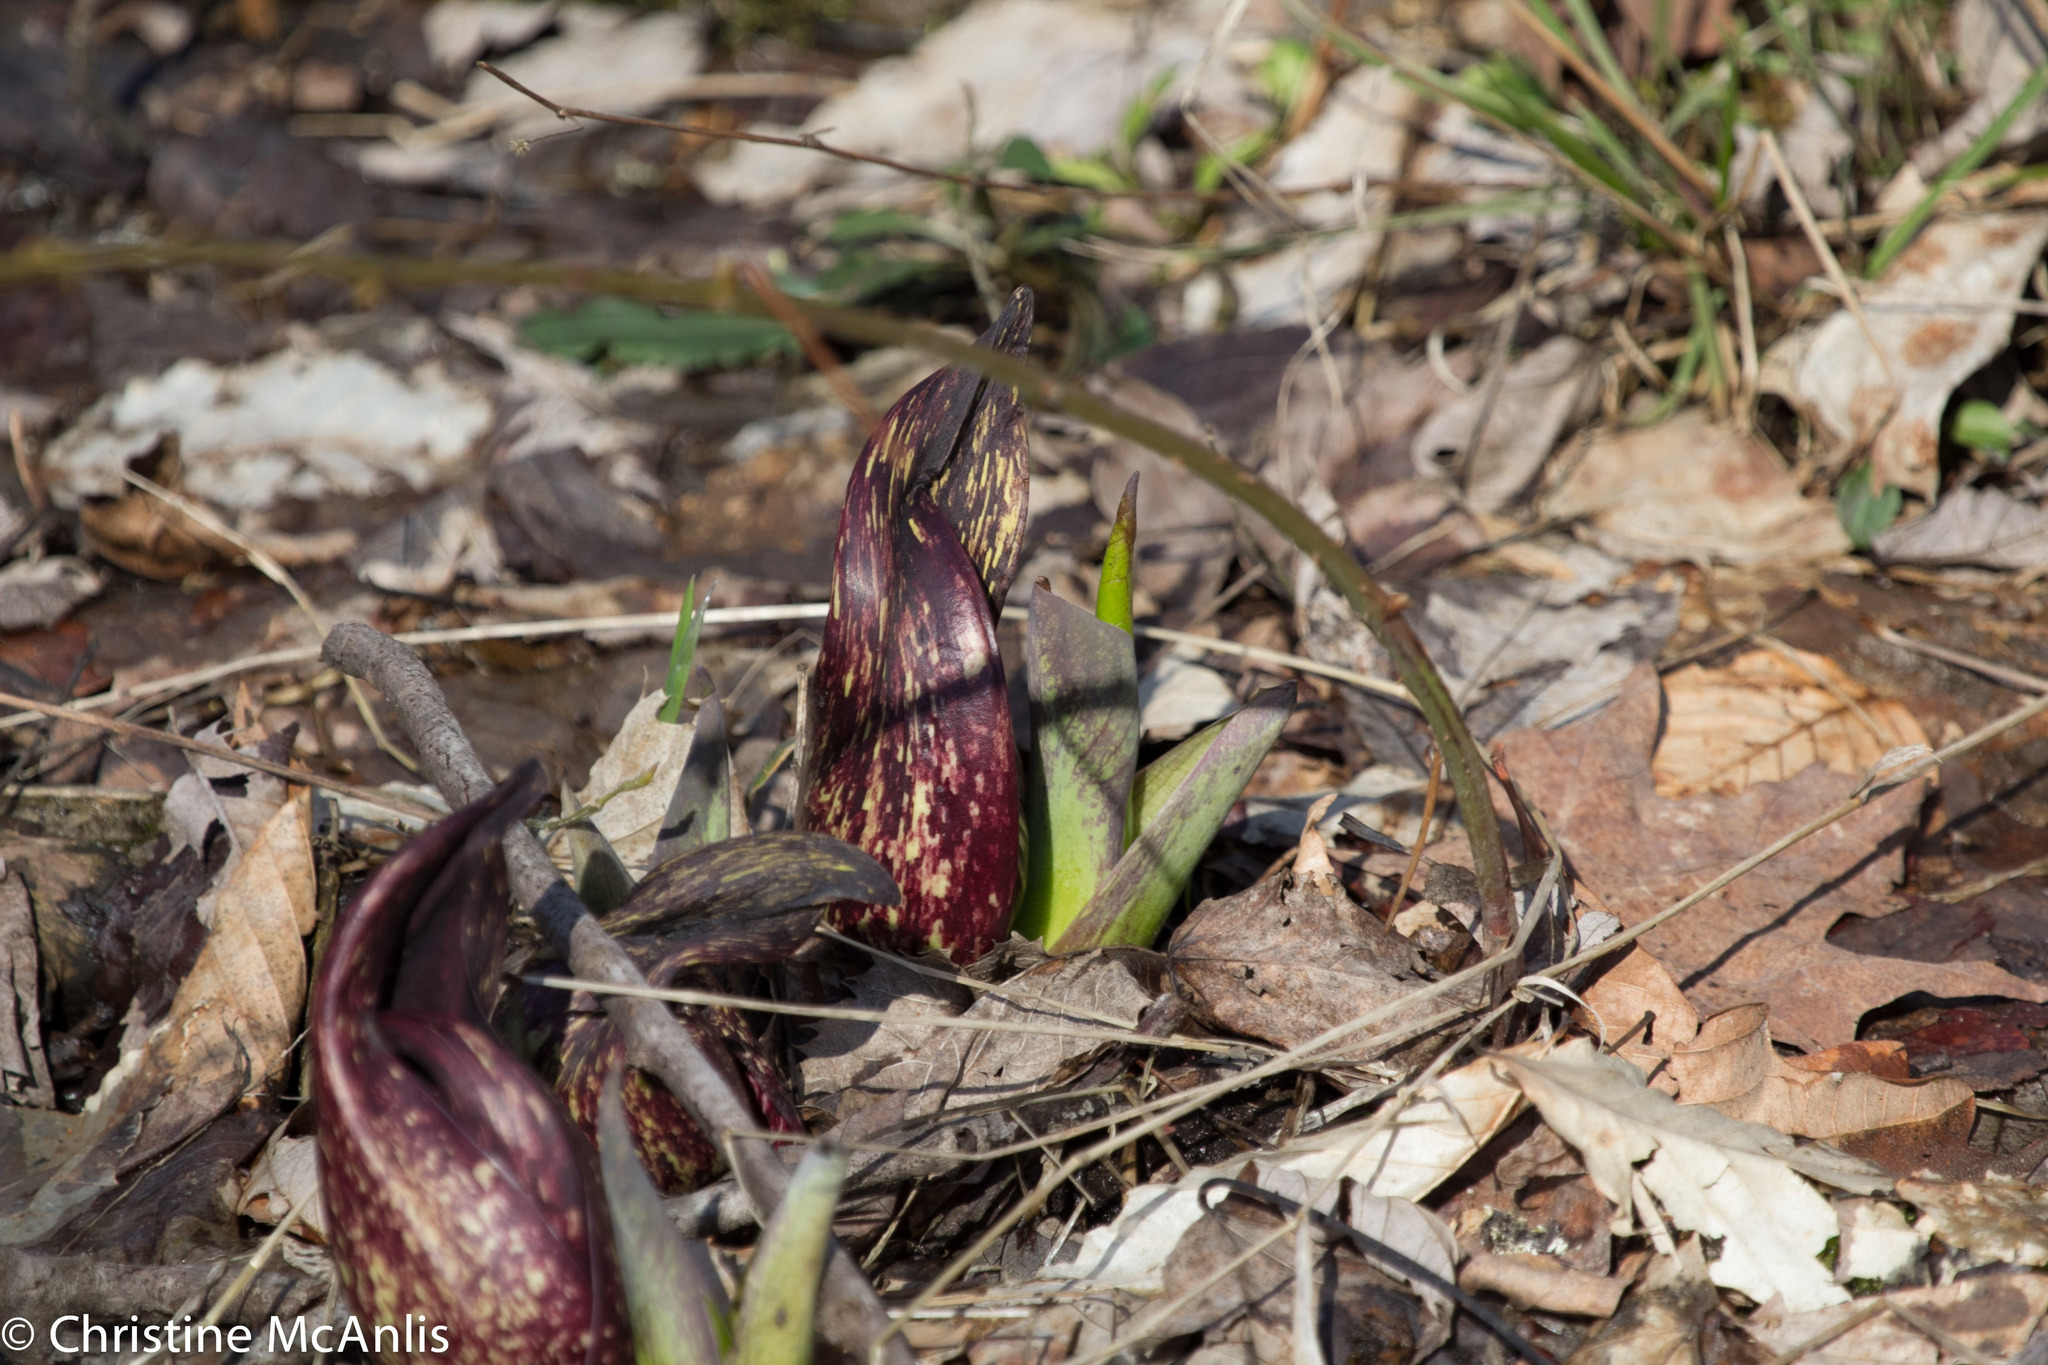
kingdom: Plantae
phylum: Tracheophyta
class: Liliopsida
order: Alismatales
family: Araceae
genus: Symplocarpus
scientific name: Symplocarpus foetidus
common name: Eastern skunk cabbage
